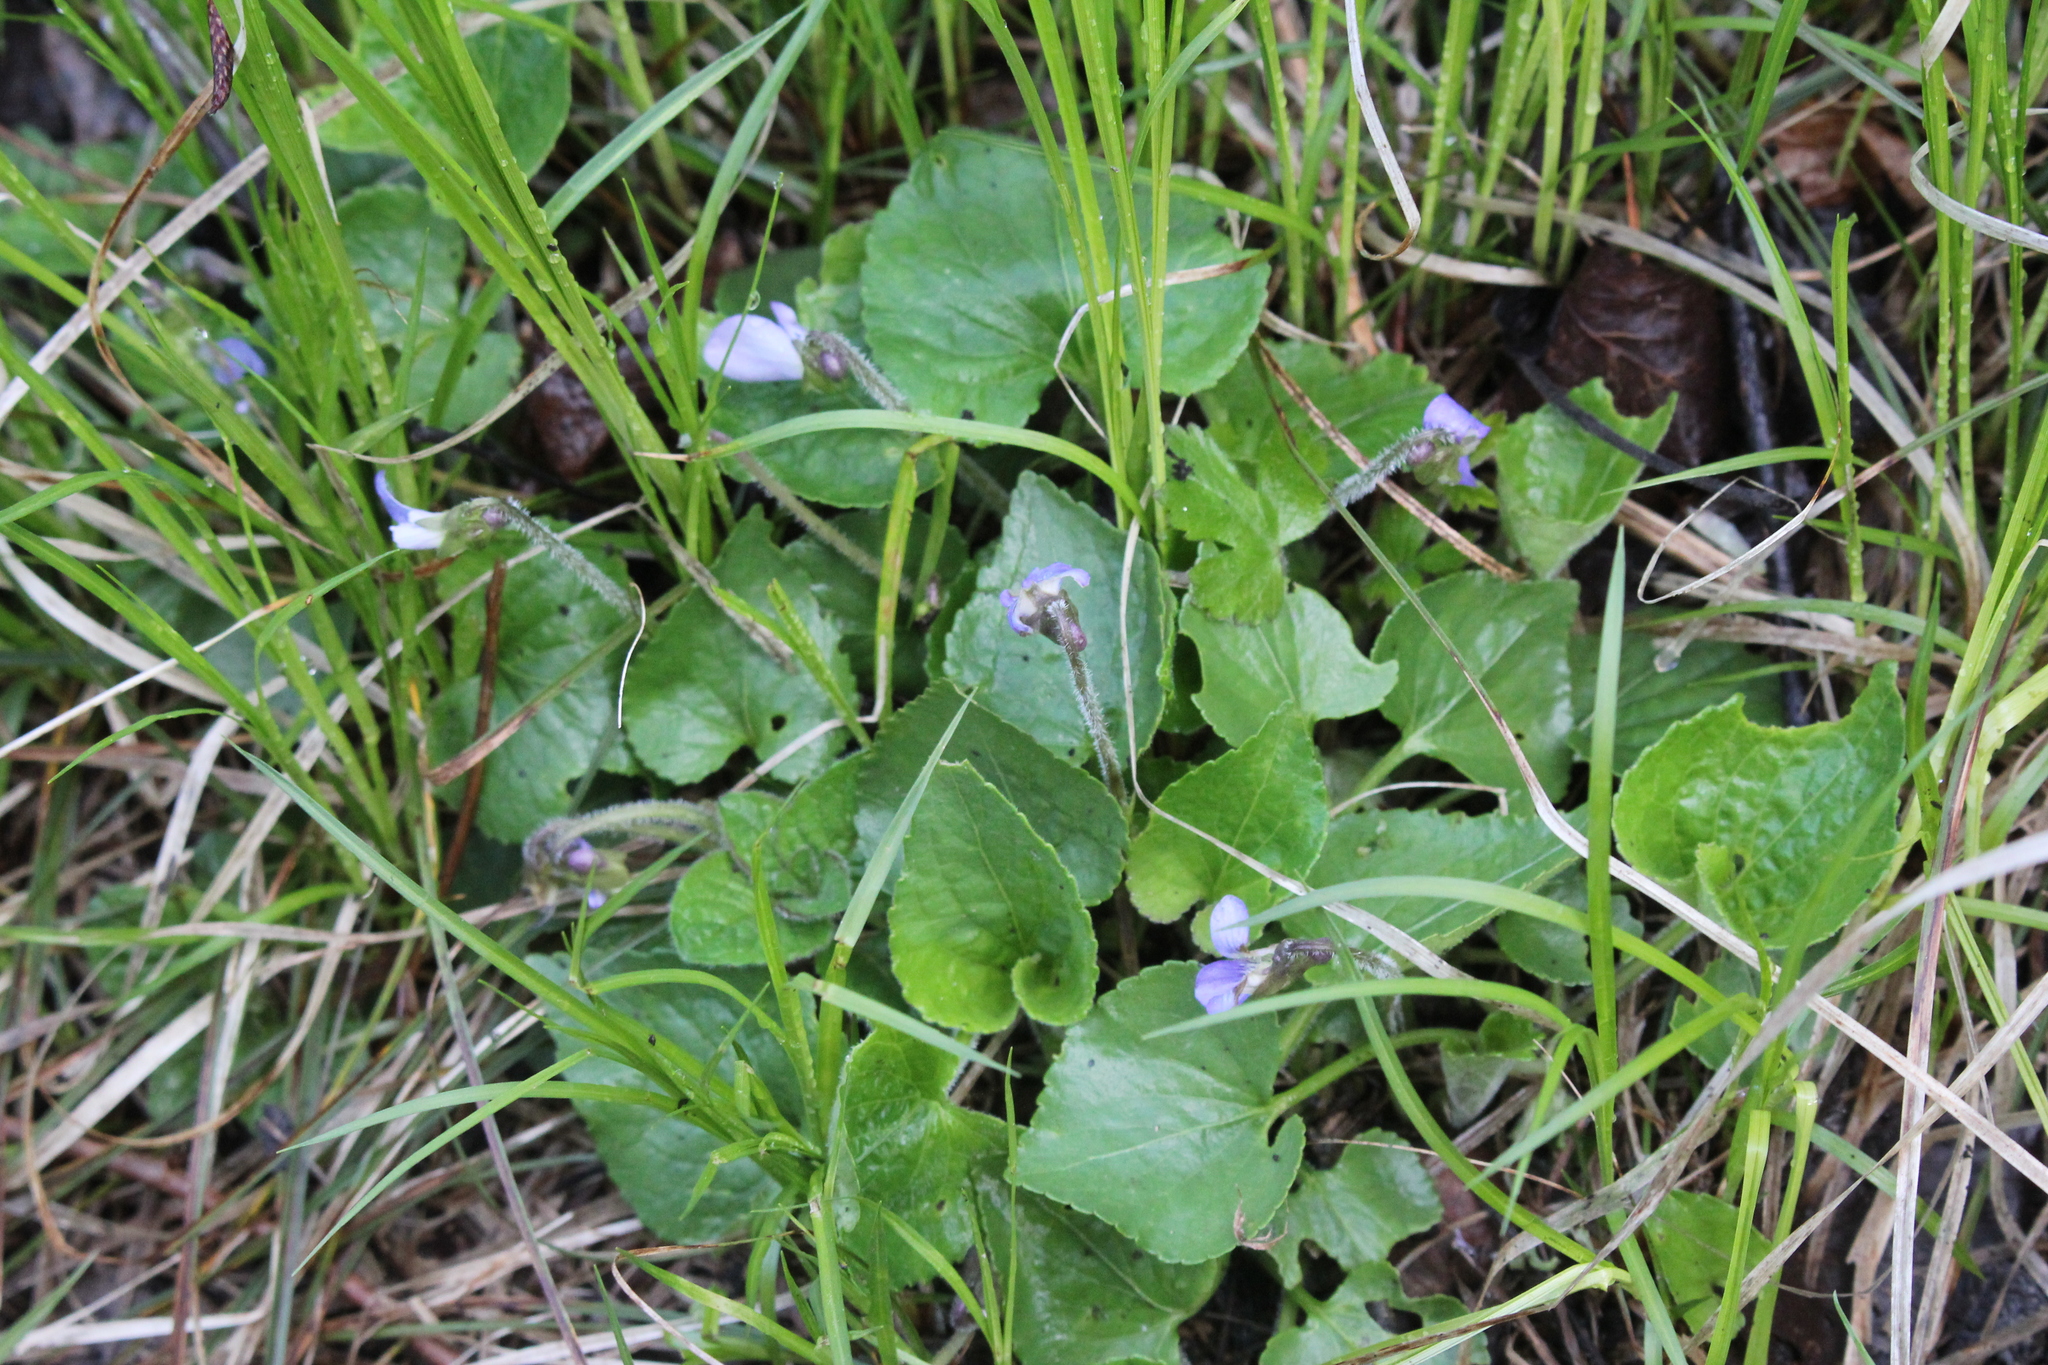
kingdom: Plantae
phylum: Tracheophyta
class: Magnoliopsida
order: Malpighiales
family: Violaceae
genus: Viola
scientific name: Viola sororia
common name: Dooryard violet
